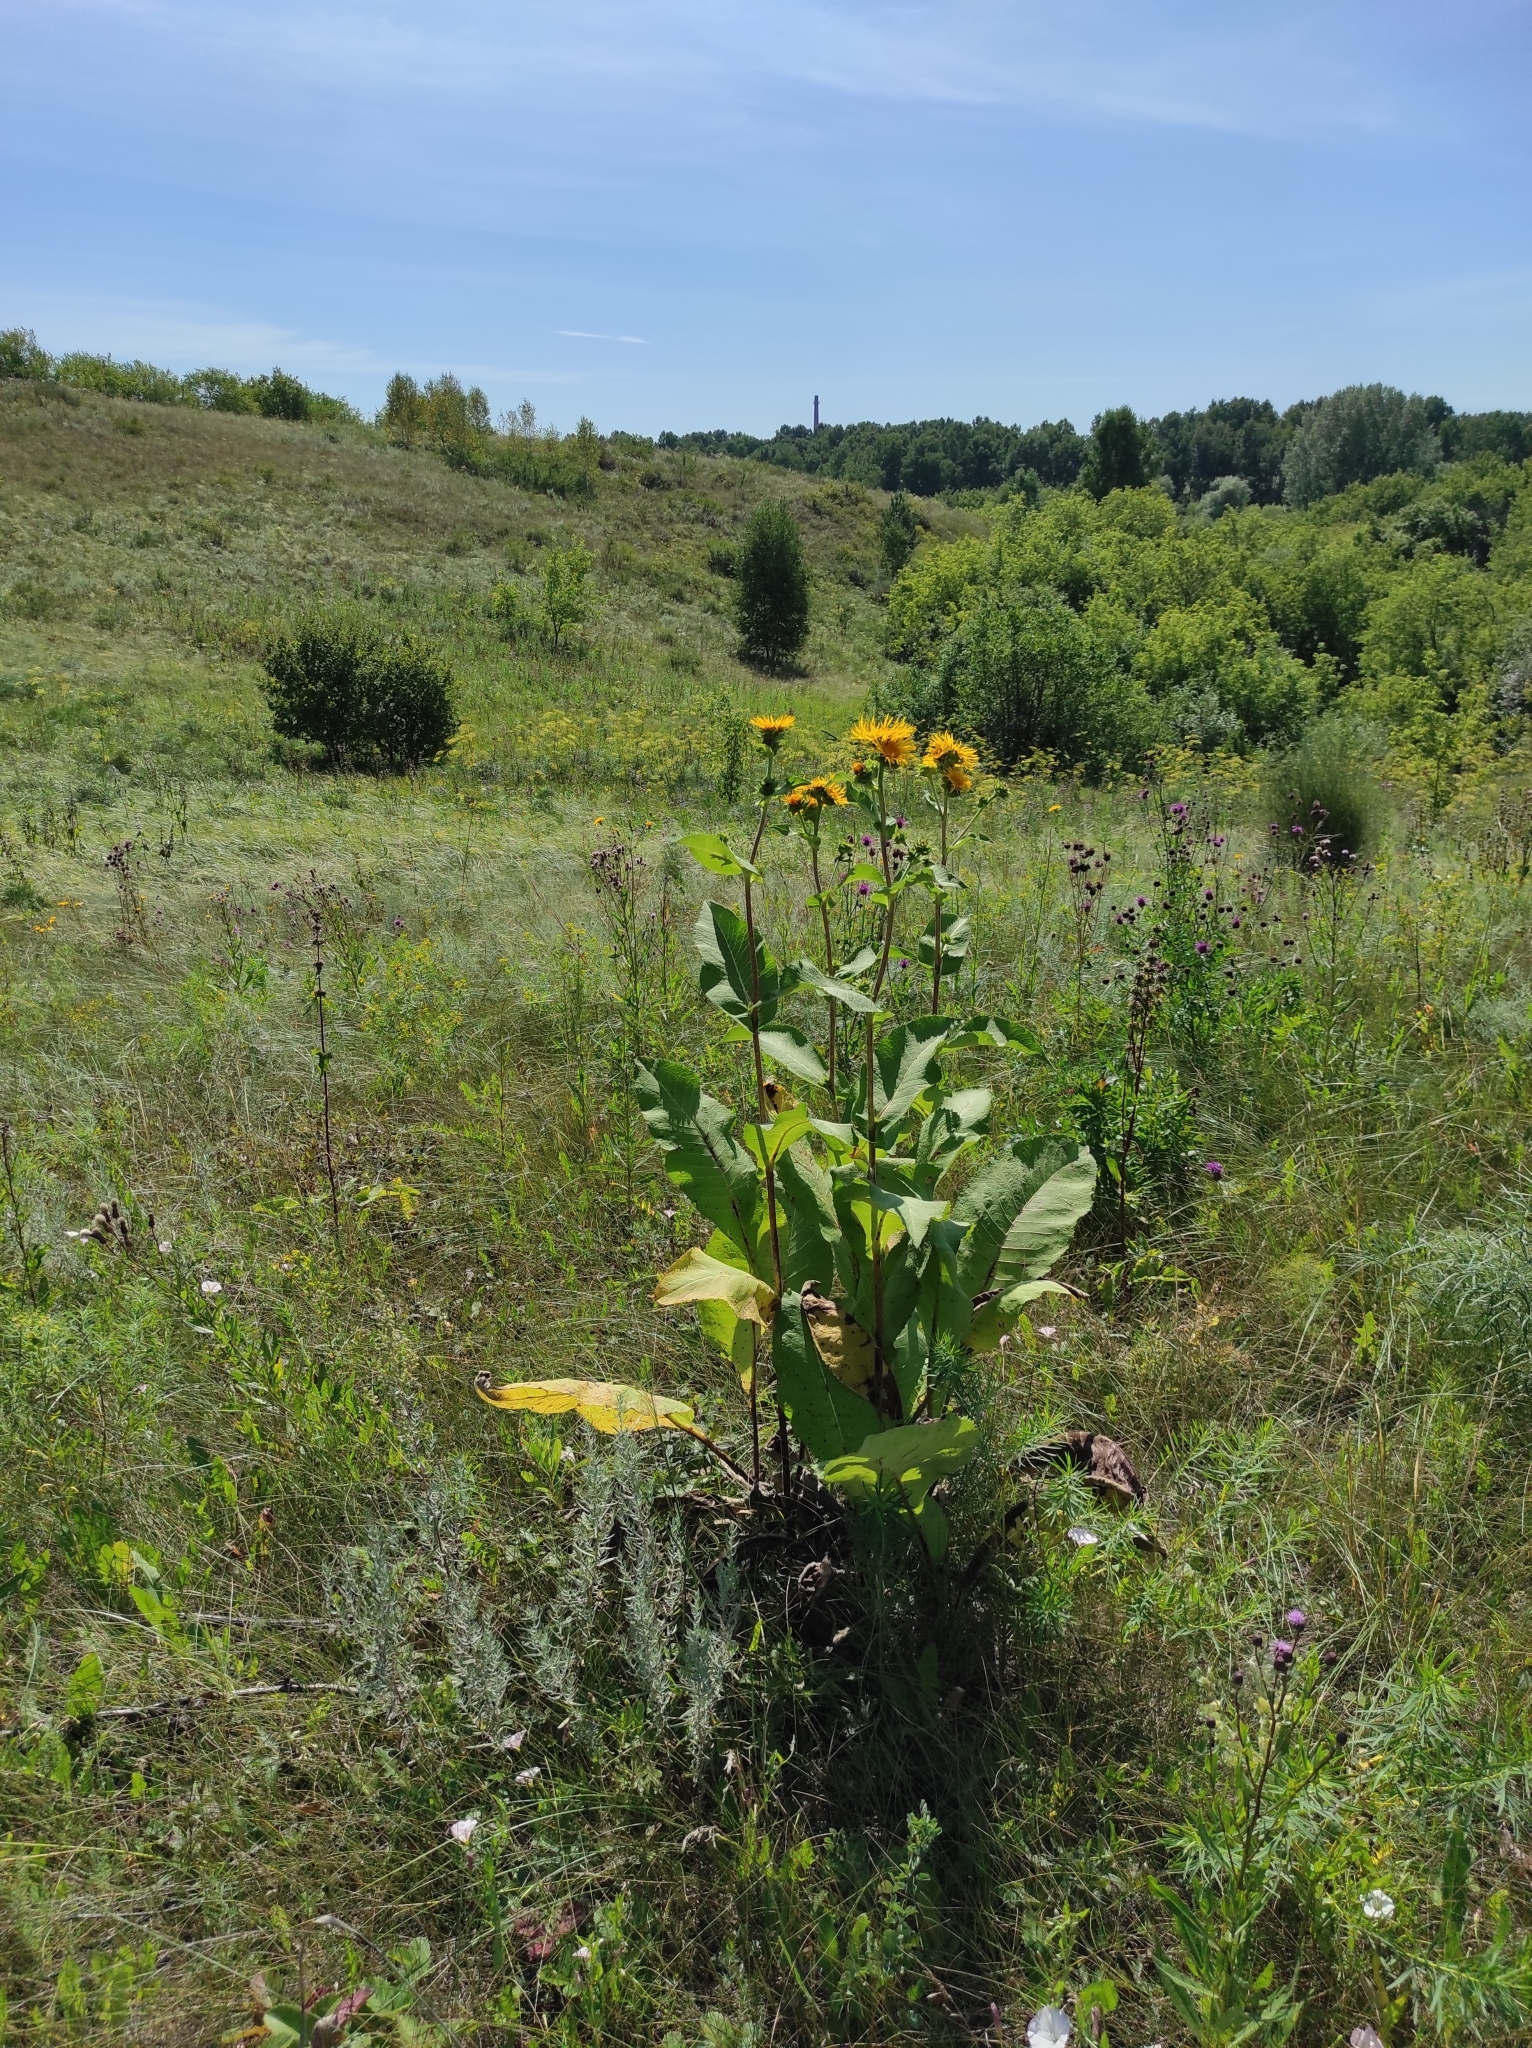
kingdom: Plantae
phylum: Tracheophyta
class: Magnoliopsida
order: Asterales
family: Asteraceae
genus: Inula
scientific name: Inula helenium
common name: Elecampane
